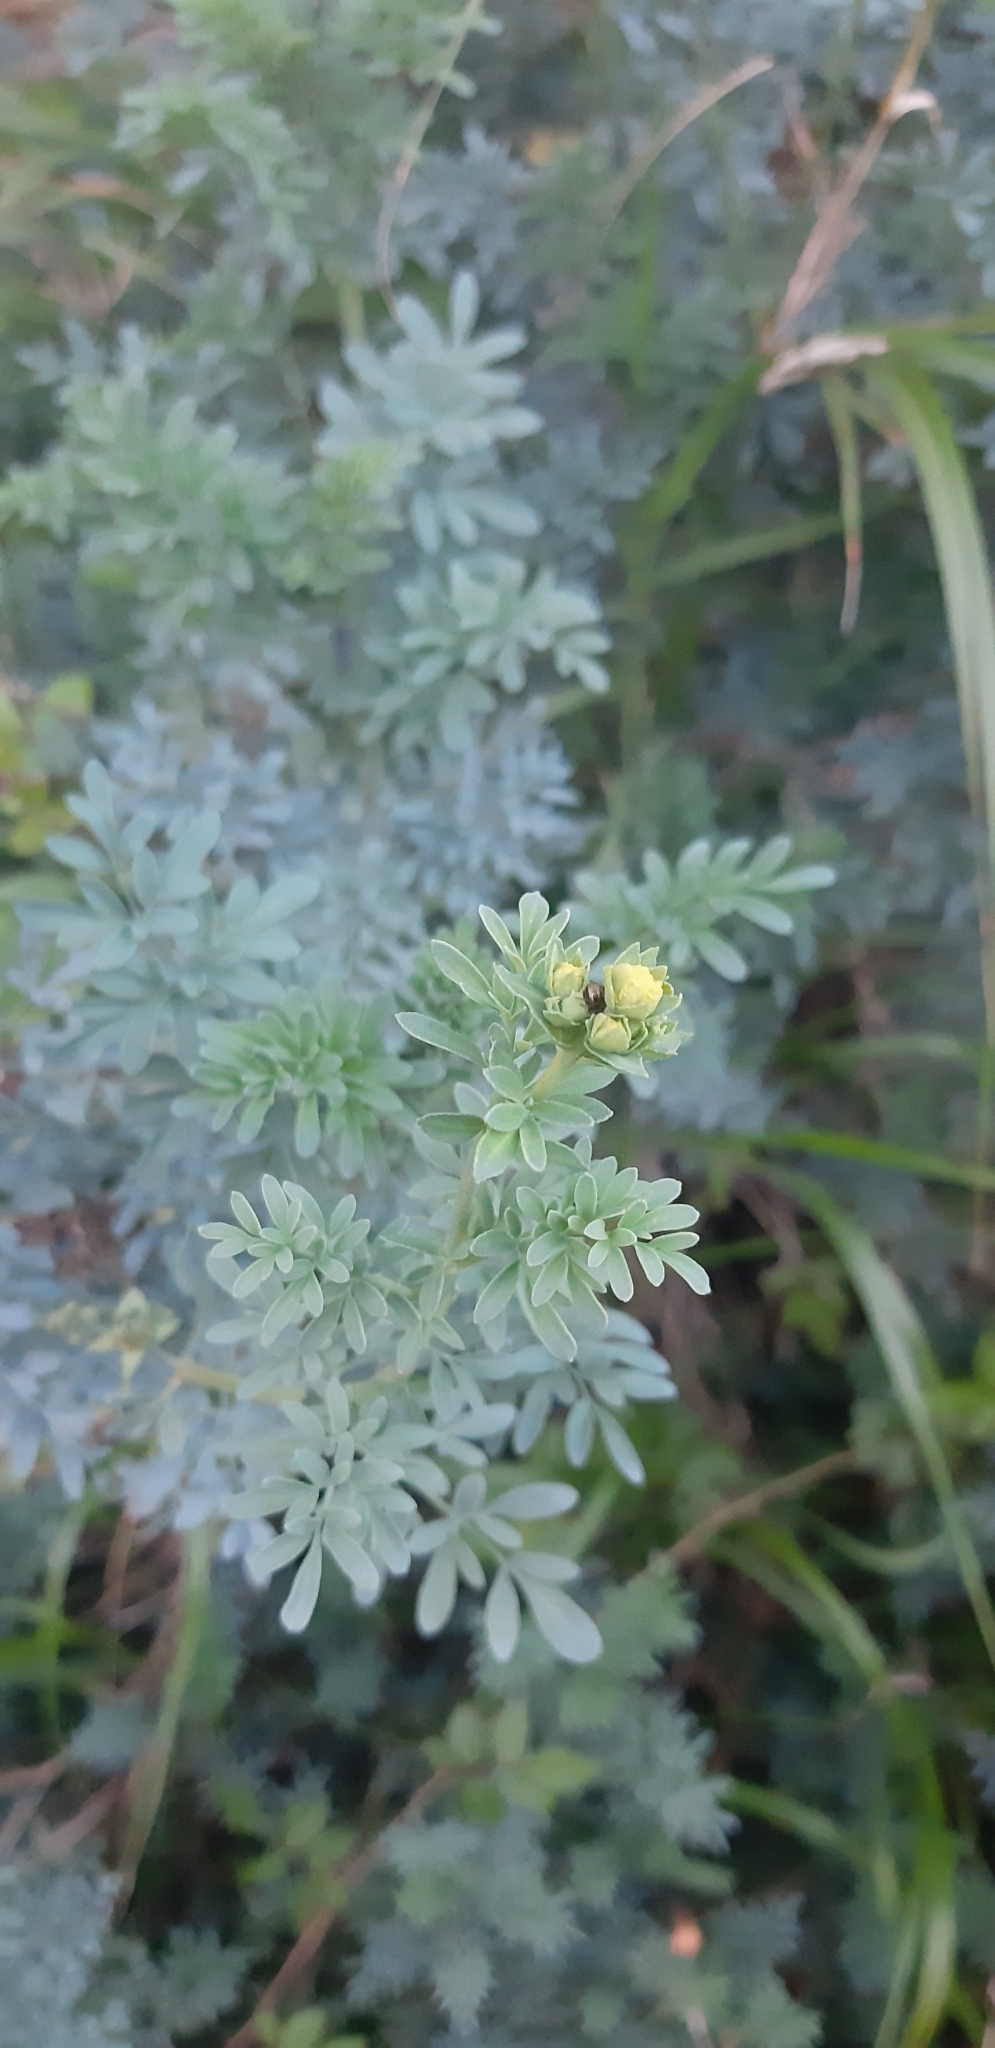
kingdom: Plantae
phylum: Tracheophyta
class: Magnoliopsida
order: Sapindales
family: Rutaceae
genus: Ruta
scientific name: Ruta chalepensis
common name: Fringed rue
